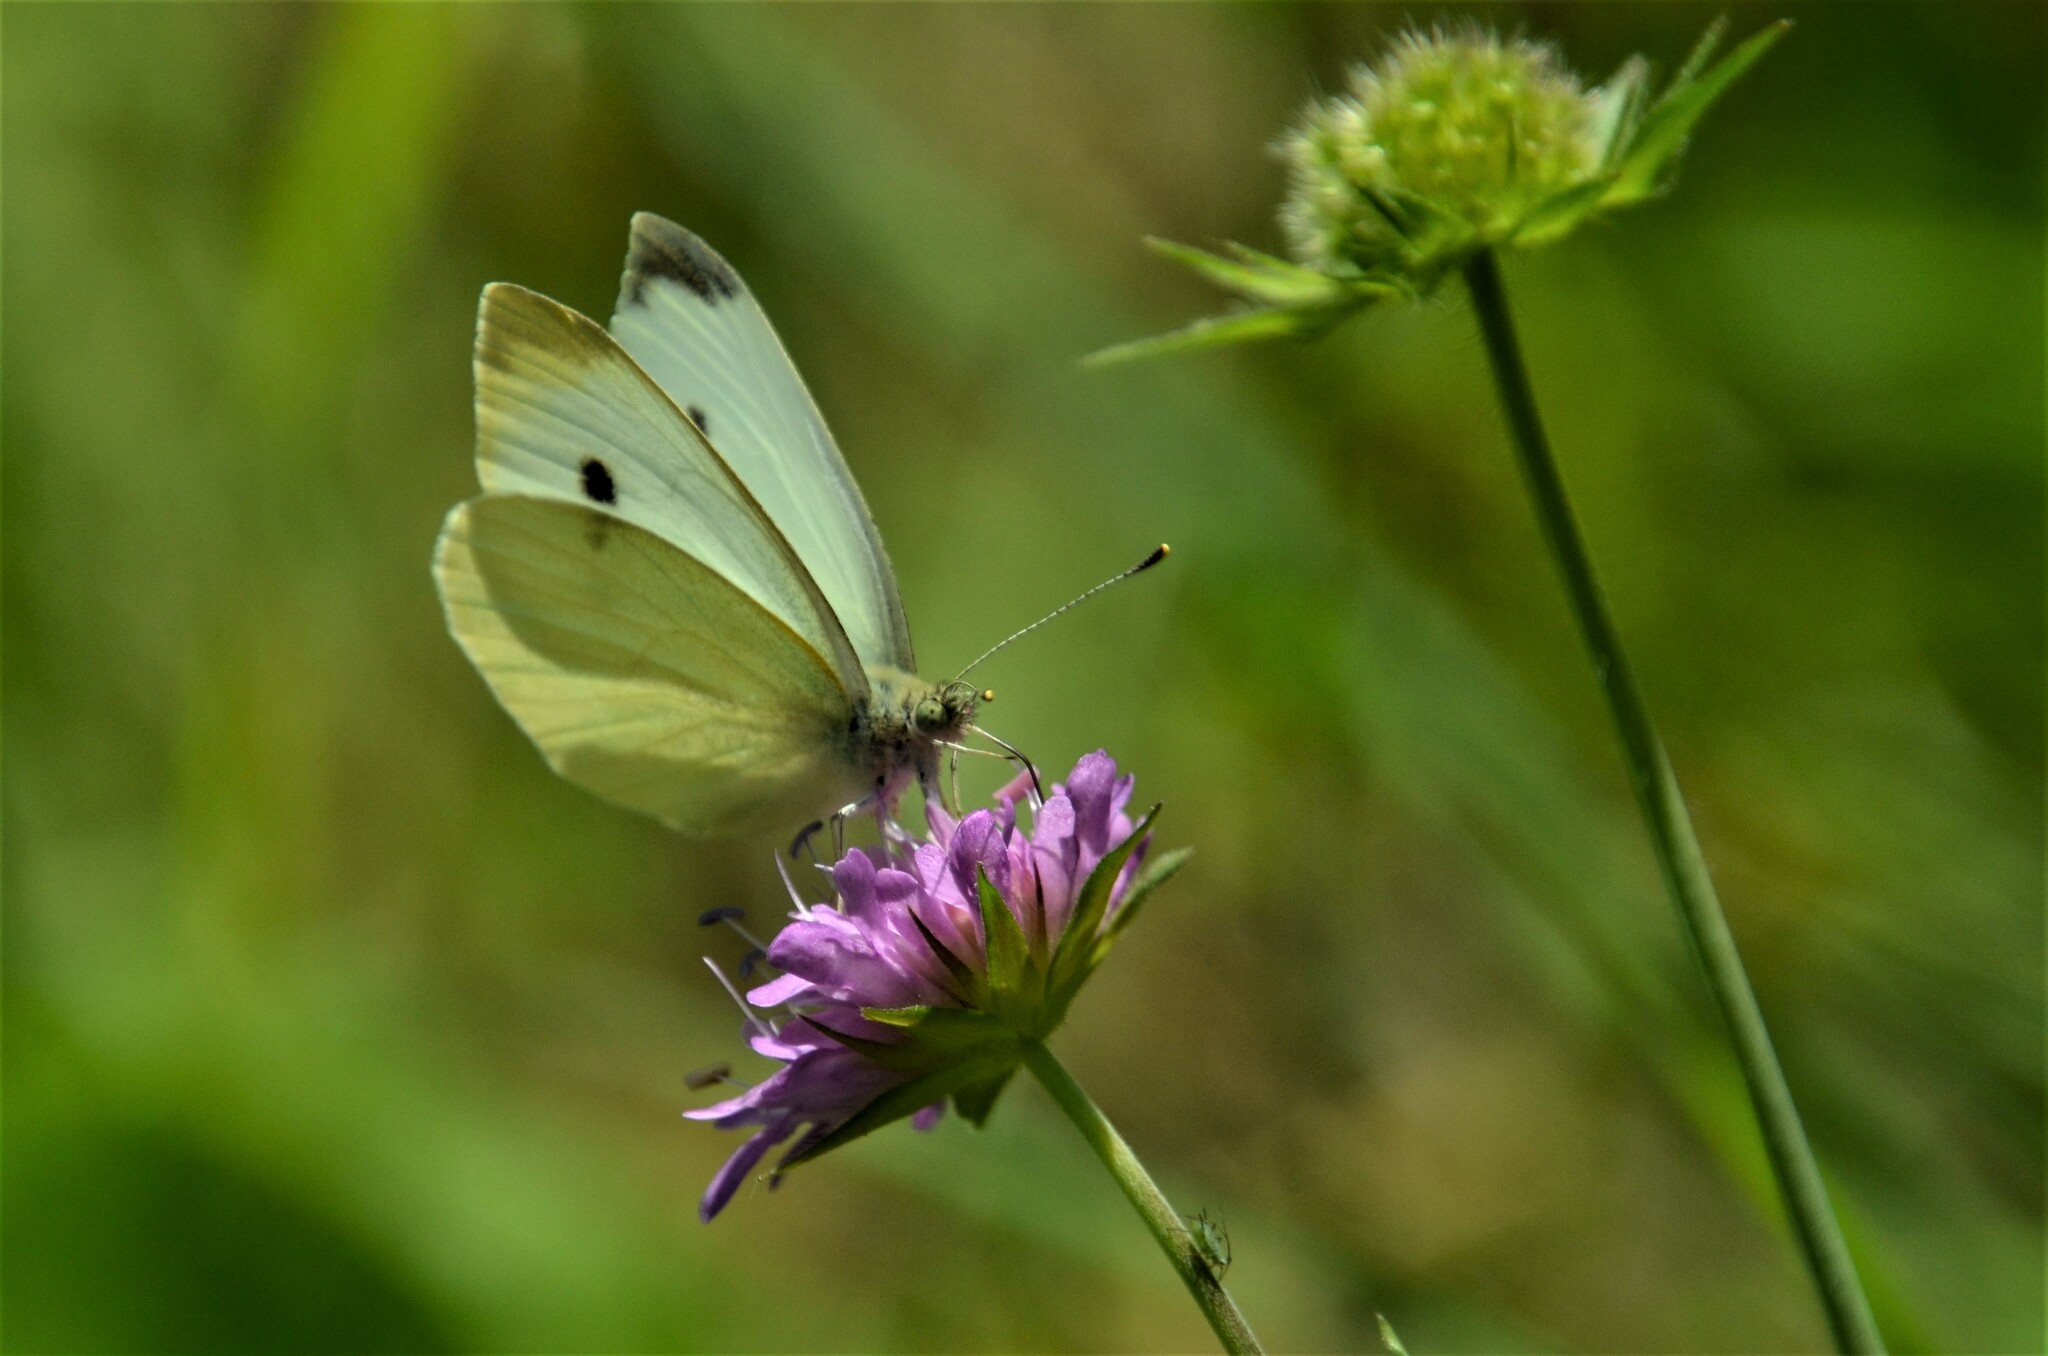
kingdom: Animalia
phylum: Arthropoda
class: Insecta
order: Lepidoptera
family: Pieridae
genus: Pieris
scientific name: Pieris rapae
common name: Small white
